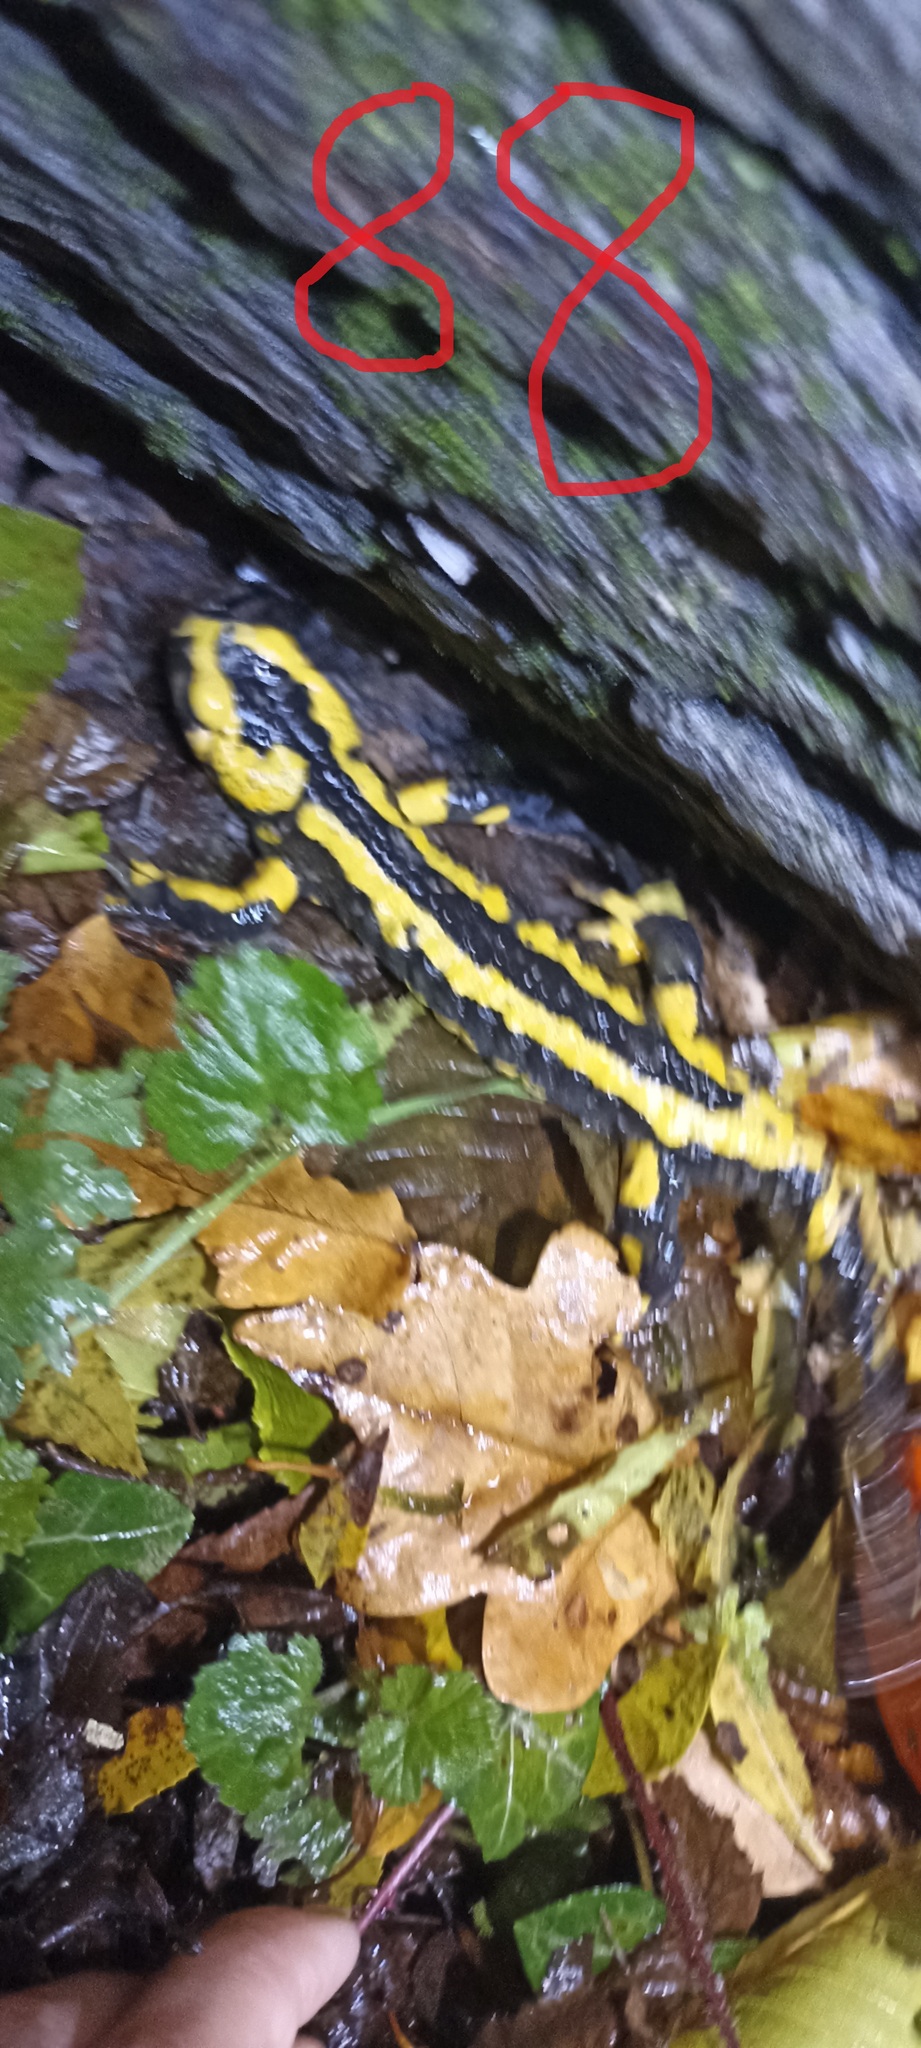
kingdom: Animalia
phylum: Chordata
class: Amphibia
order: Caudata
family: Salamandridae
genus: Salamandra
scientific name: Salamandra salamandra
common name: Fire salamander
